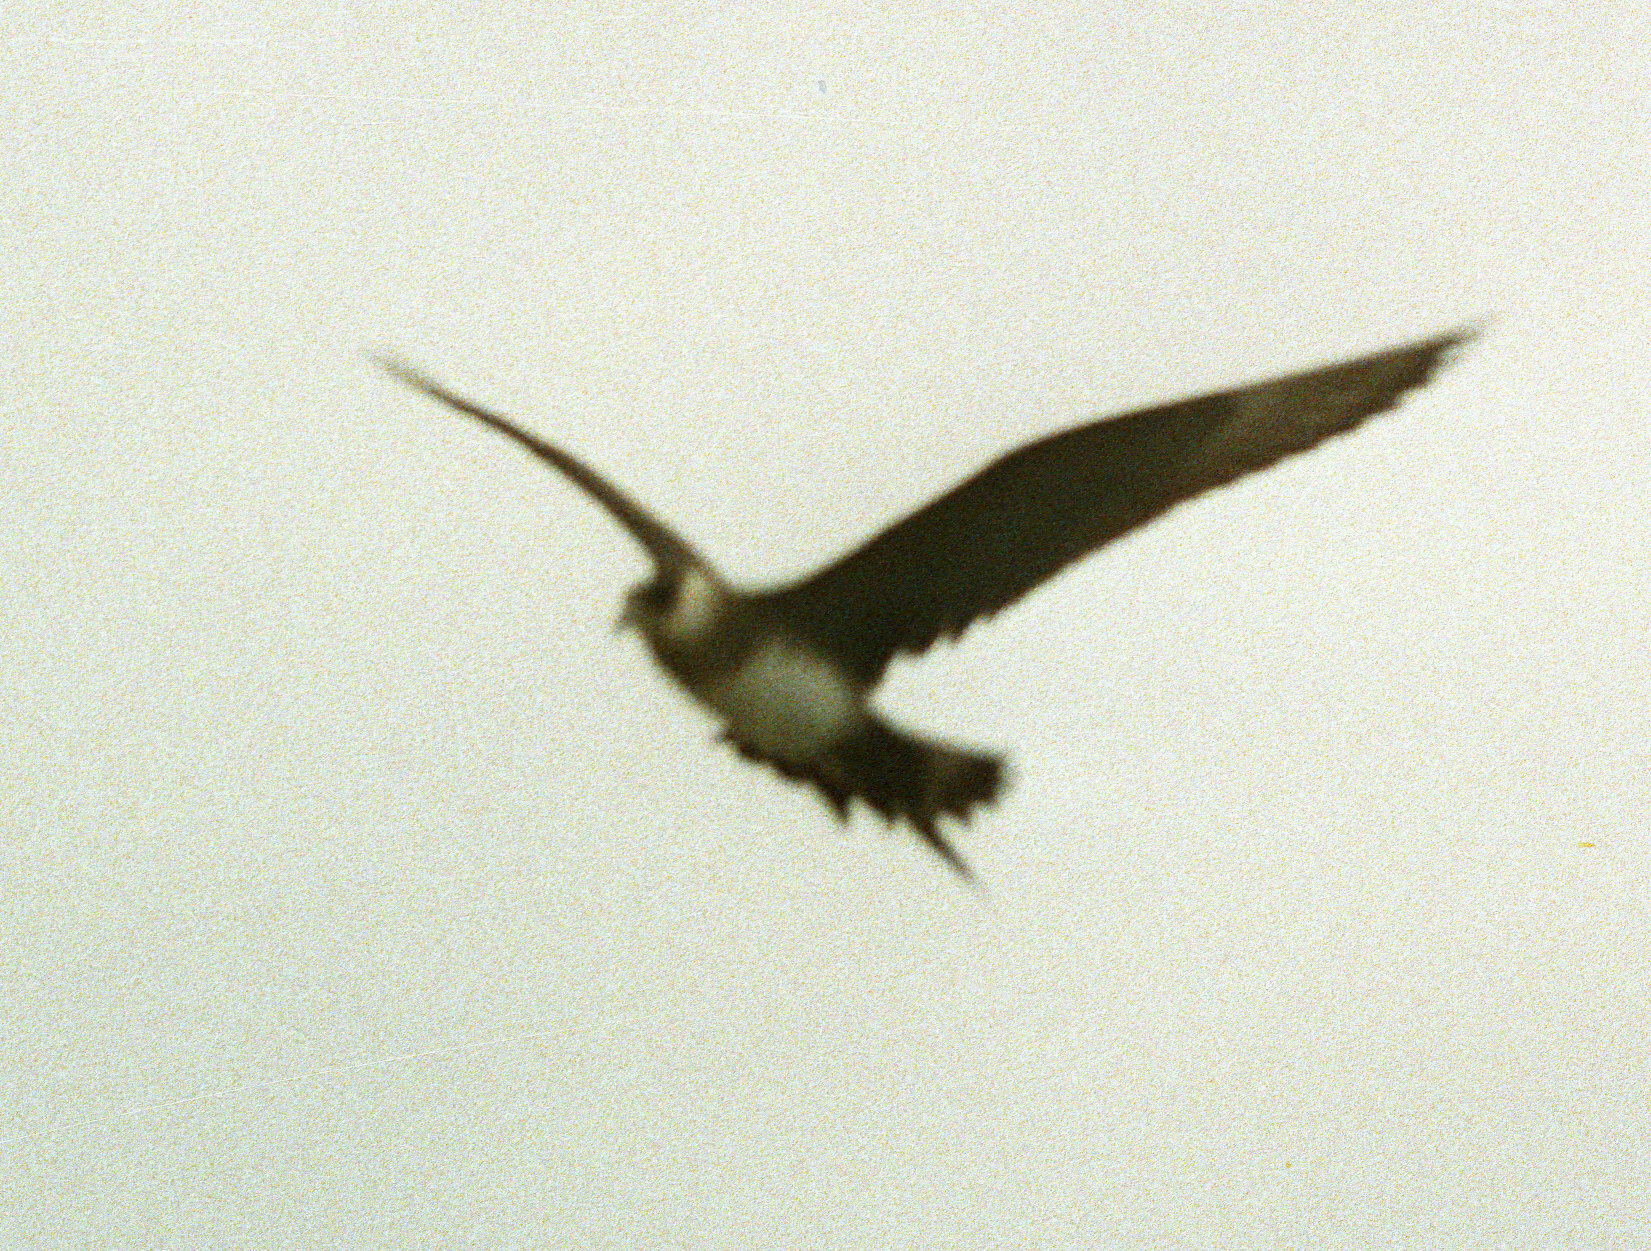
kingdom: Animalia
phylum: Chordata
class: Aves
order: Charadriiformes
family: Stercorariidae
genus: Stercorarius
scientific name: Stercorarius parasiticus
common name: Parasitic jaeger
